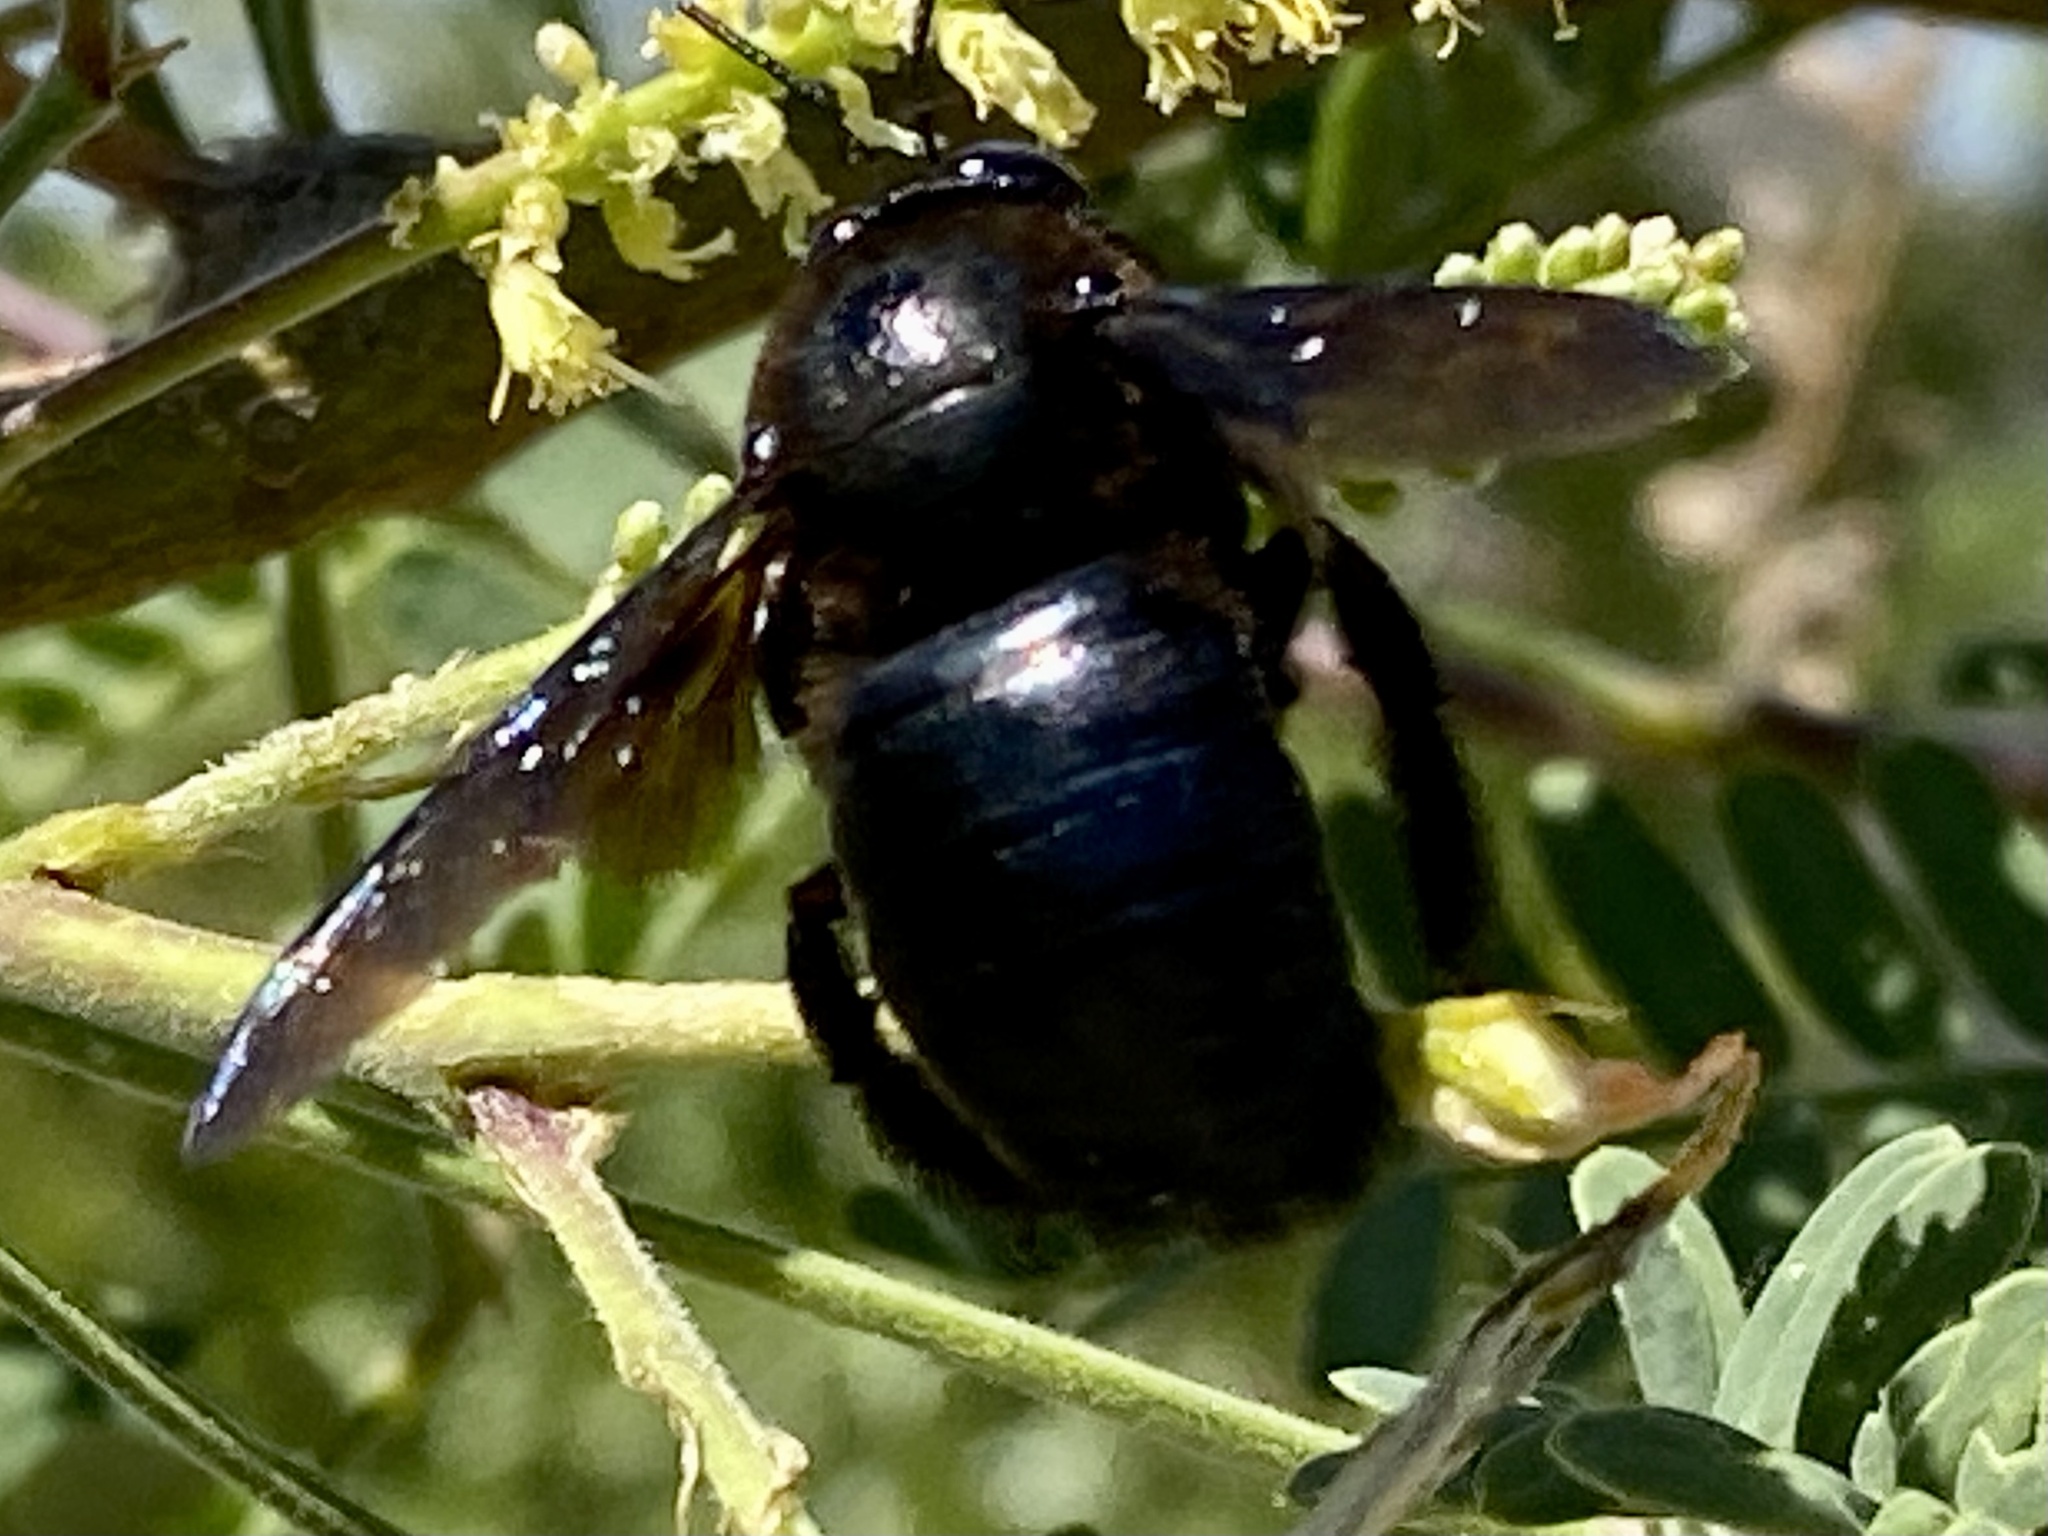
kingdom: Animalia
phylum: Arthropoda
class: Insecta
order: Hymenoptera
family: Apidae
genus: Xylocopa
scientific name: Xylocopa californica
